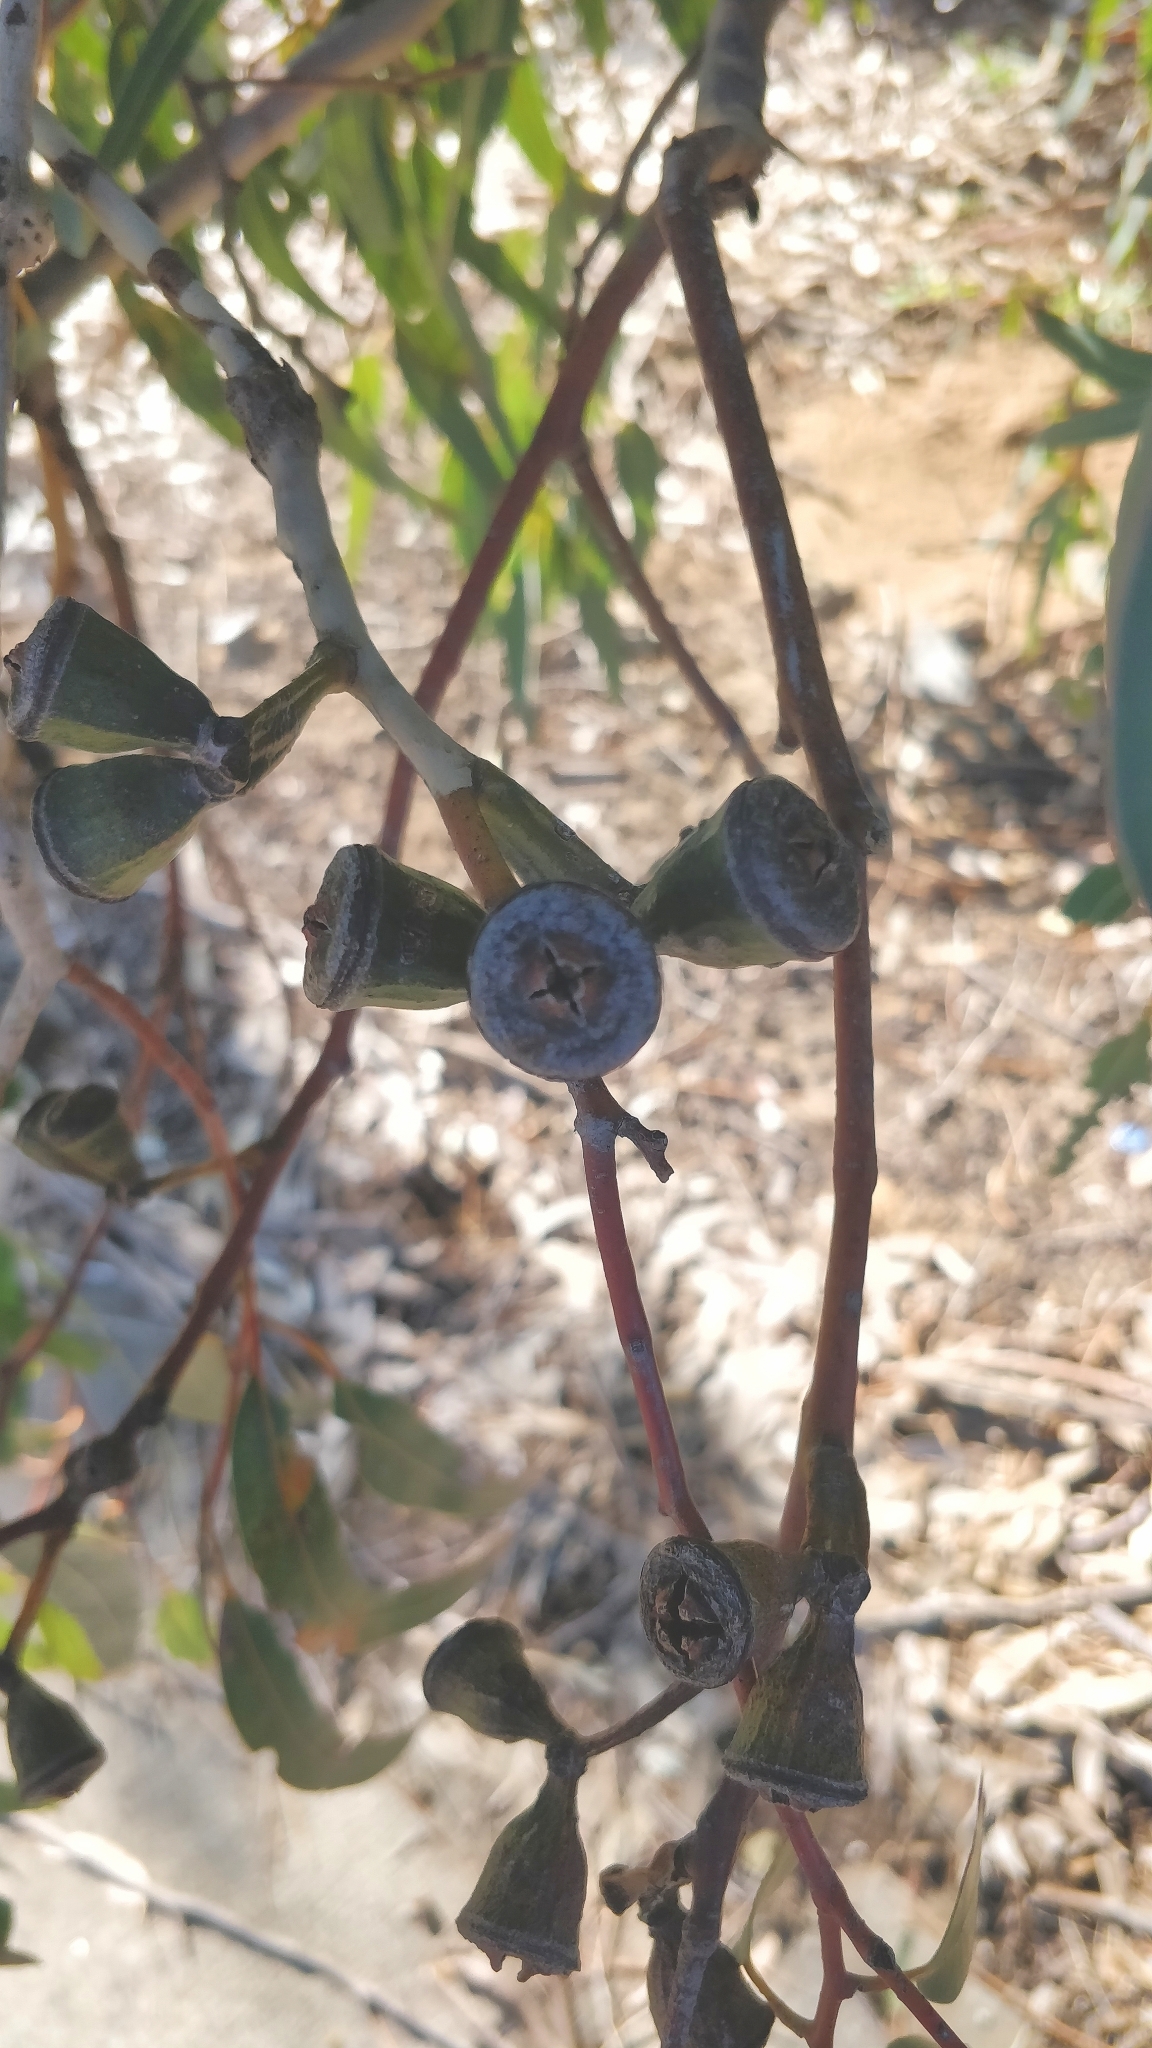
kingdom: Plantae
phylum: Tracheophyta
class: Magnoliopsida
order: Myrtales
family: Myrtaceae
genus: Eucalyptus
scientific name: Eucalyptus gomphocephala
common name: Tuart
